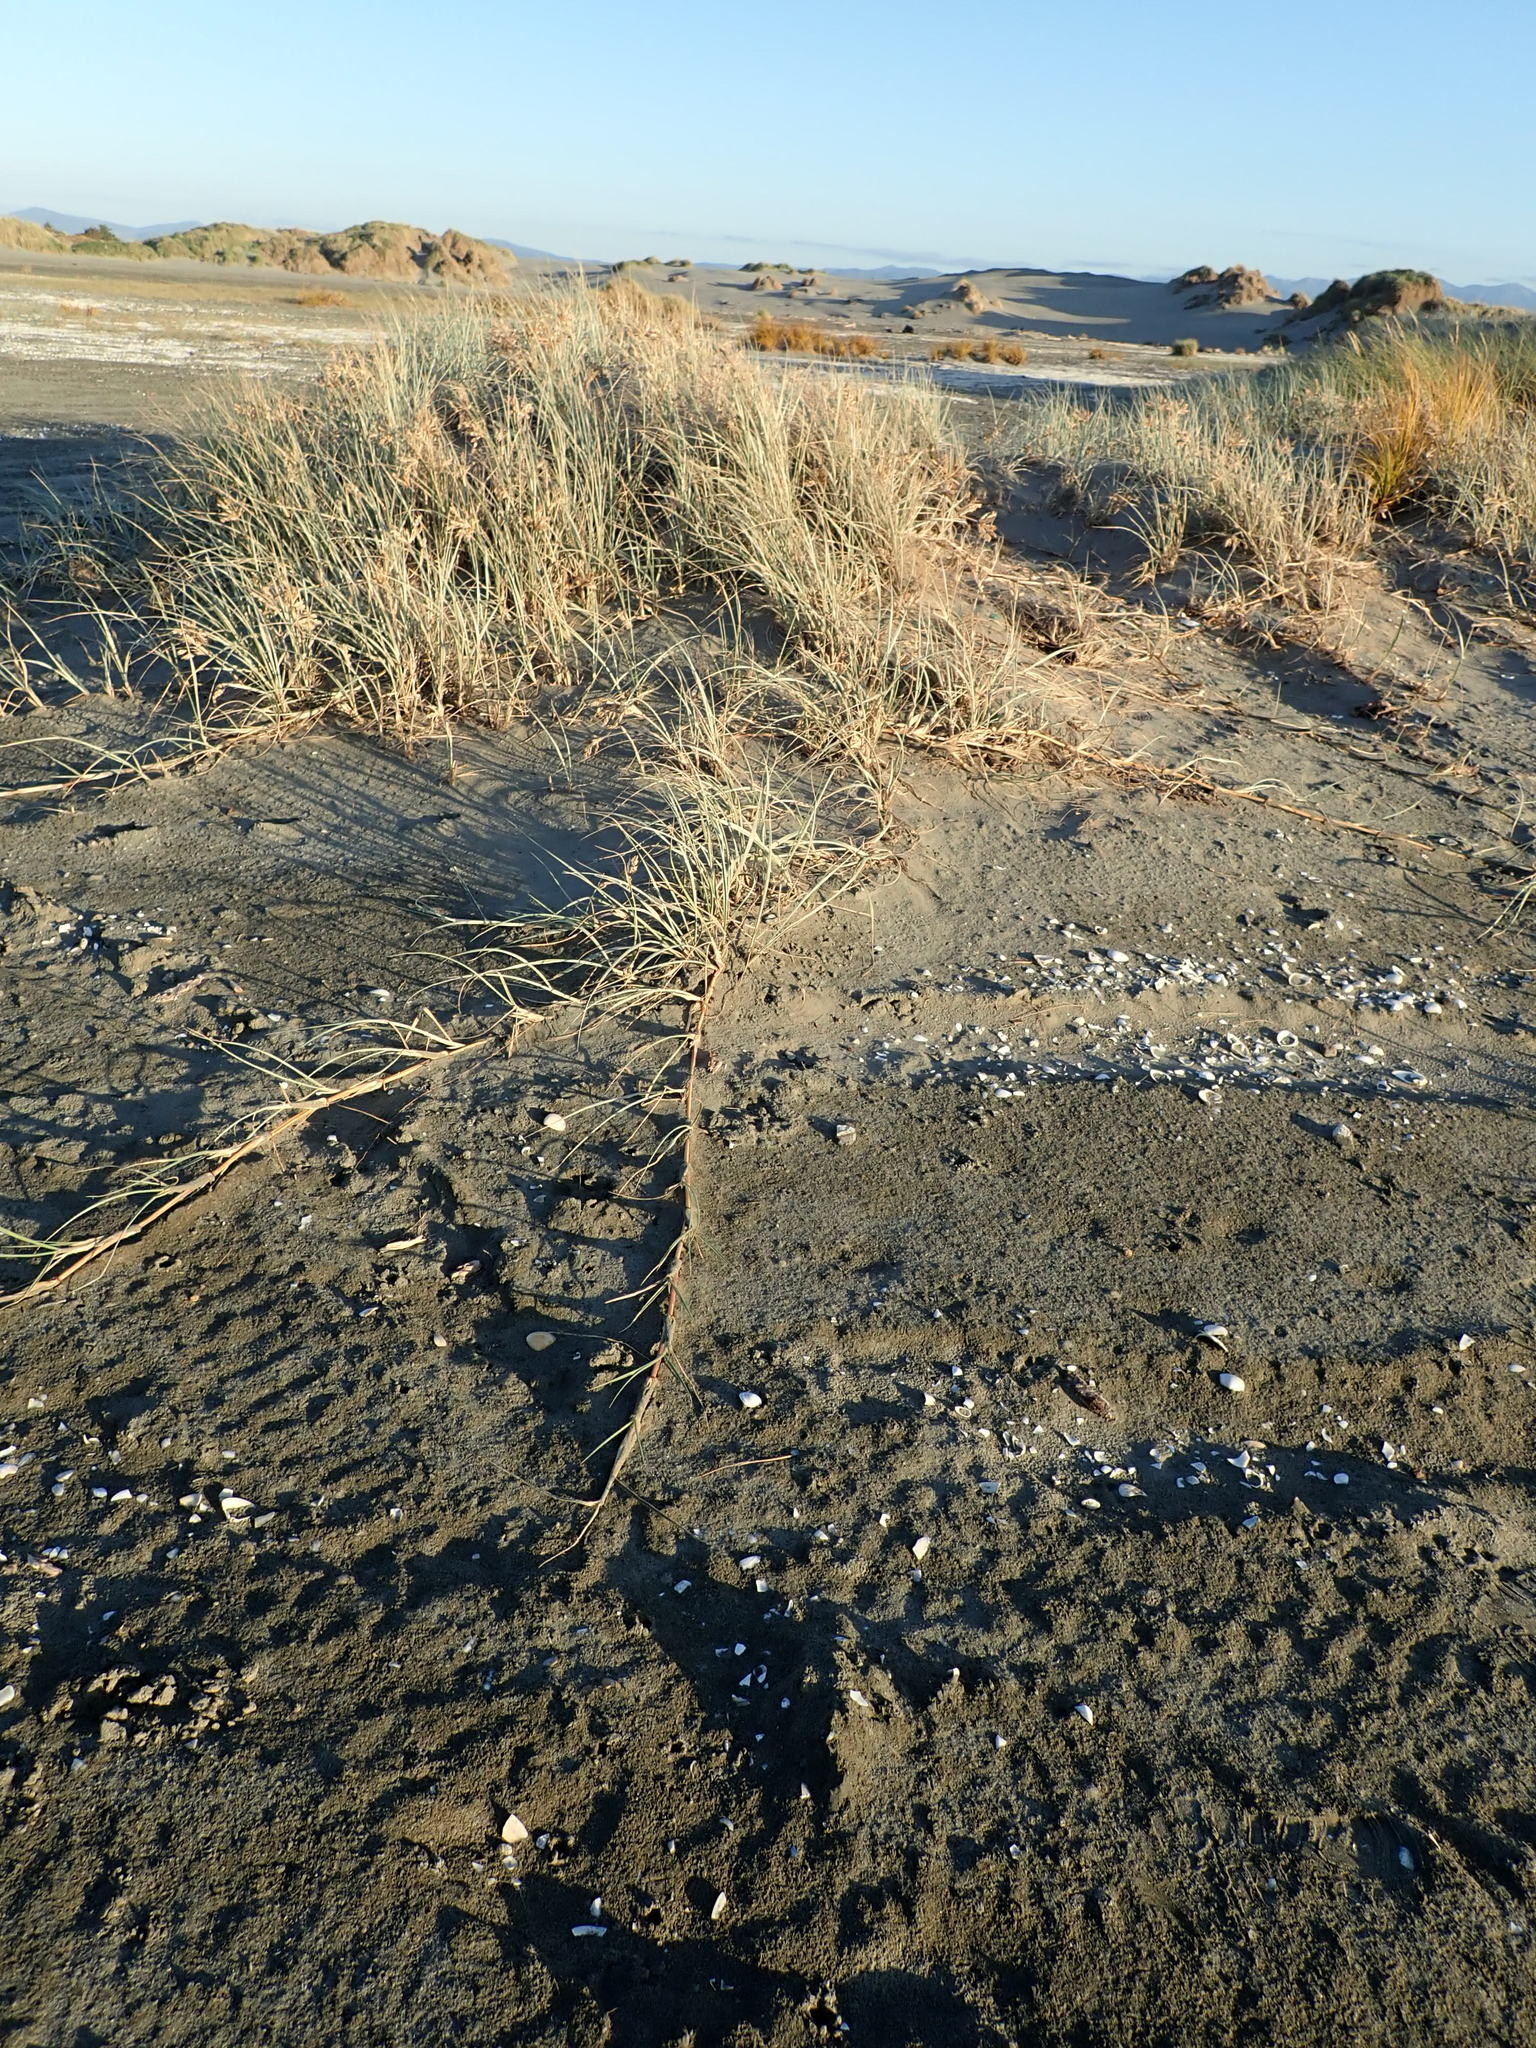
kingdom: Plantae
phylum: Tracheophyta
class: Liliopsida
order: Poales
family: Poaceae
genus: Spinifex
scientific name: Spinifex sericeus
